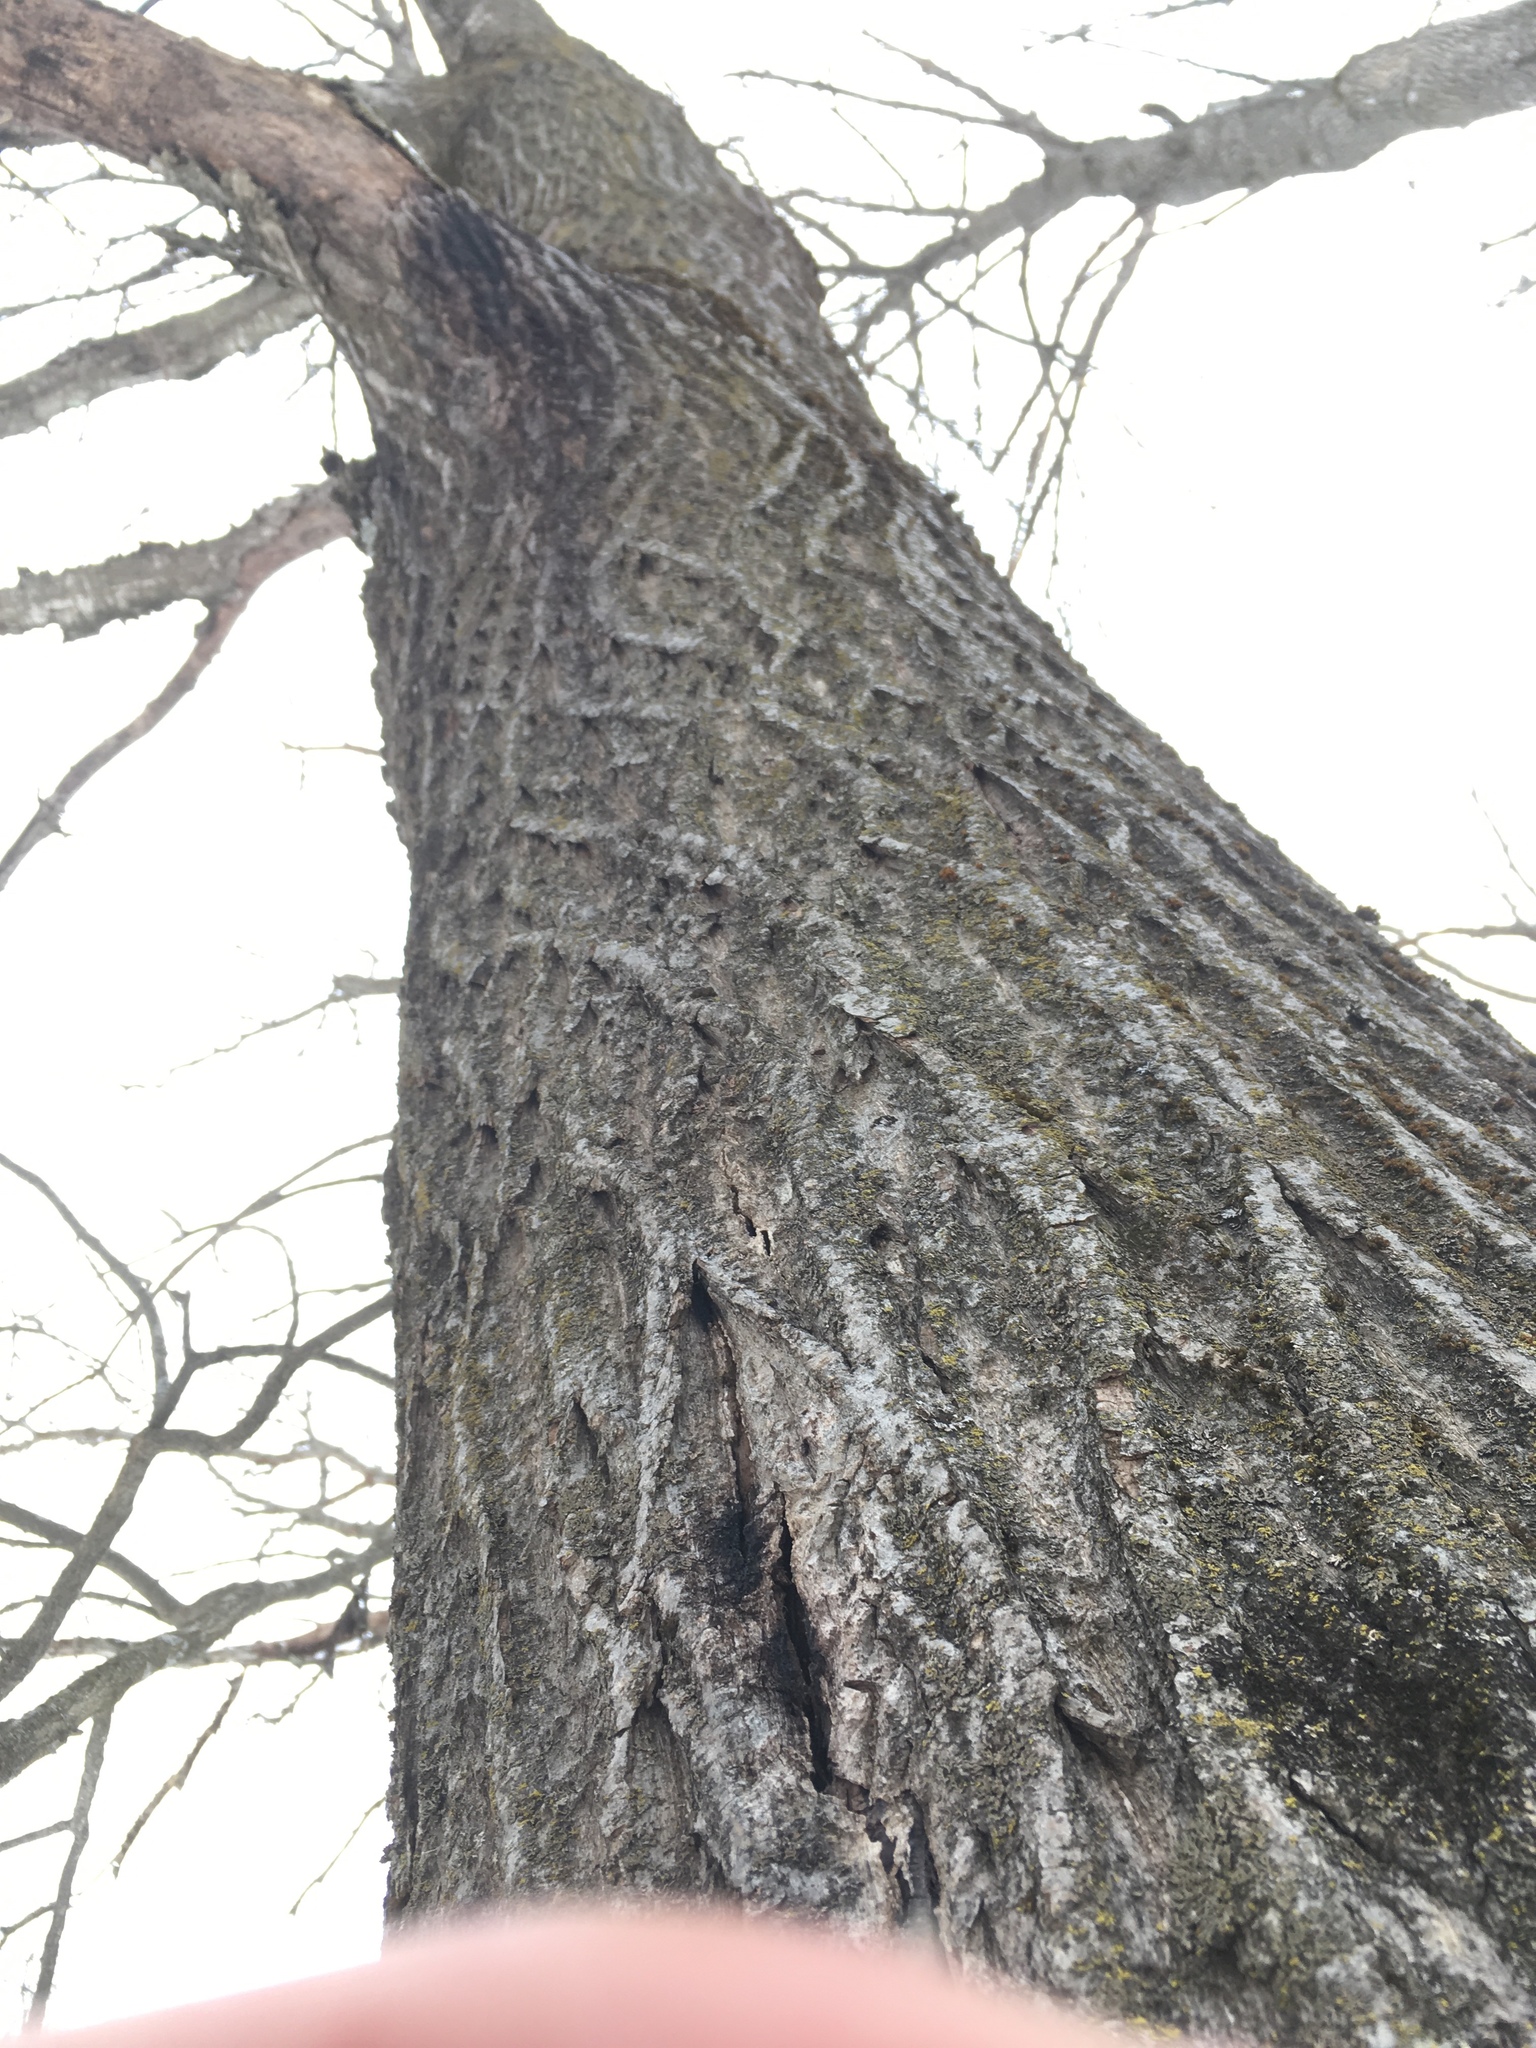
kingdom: Plantae
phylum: Tracheophyta
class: Magnoliopsida
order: Fagales
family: Juglandaceae
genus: Juglans
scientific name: Juglans cinerea
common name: Butternut
